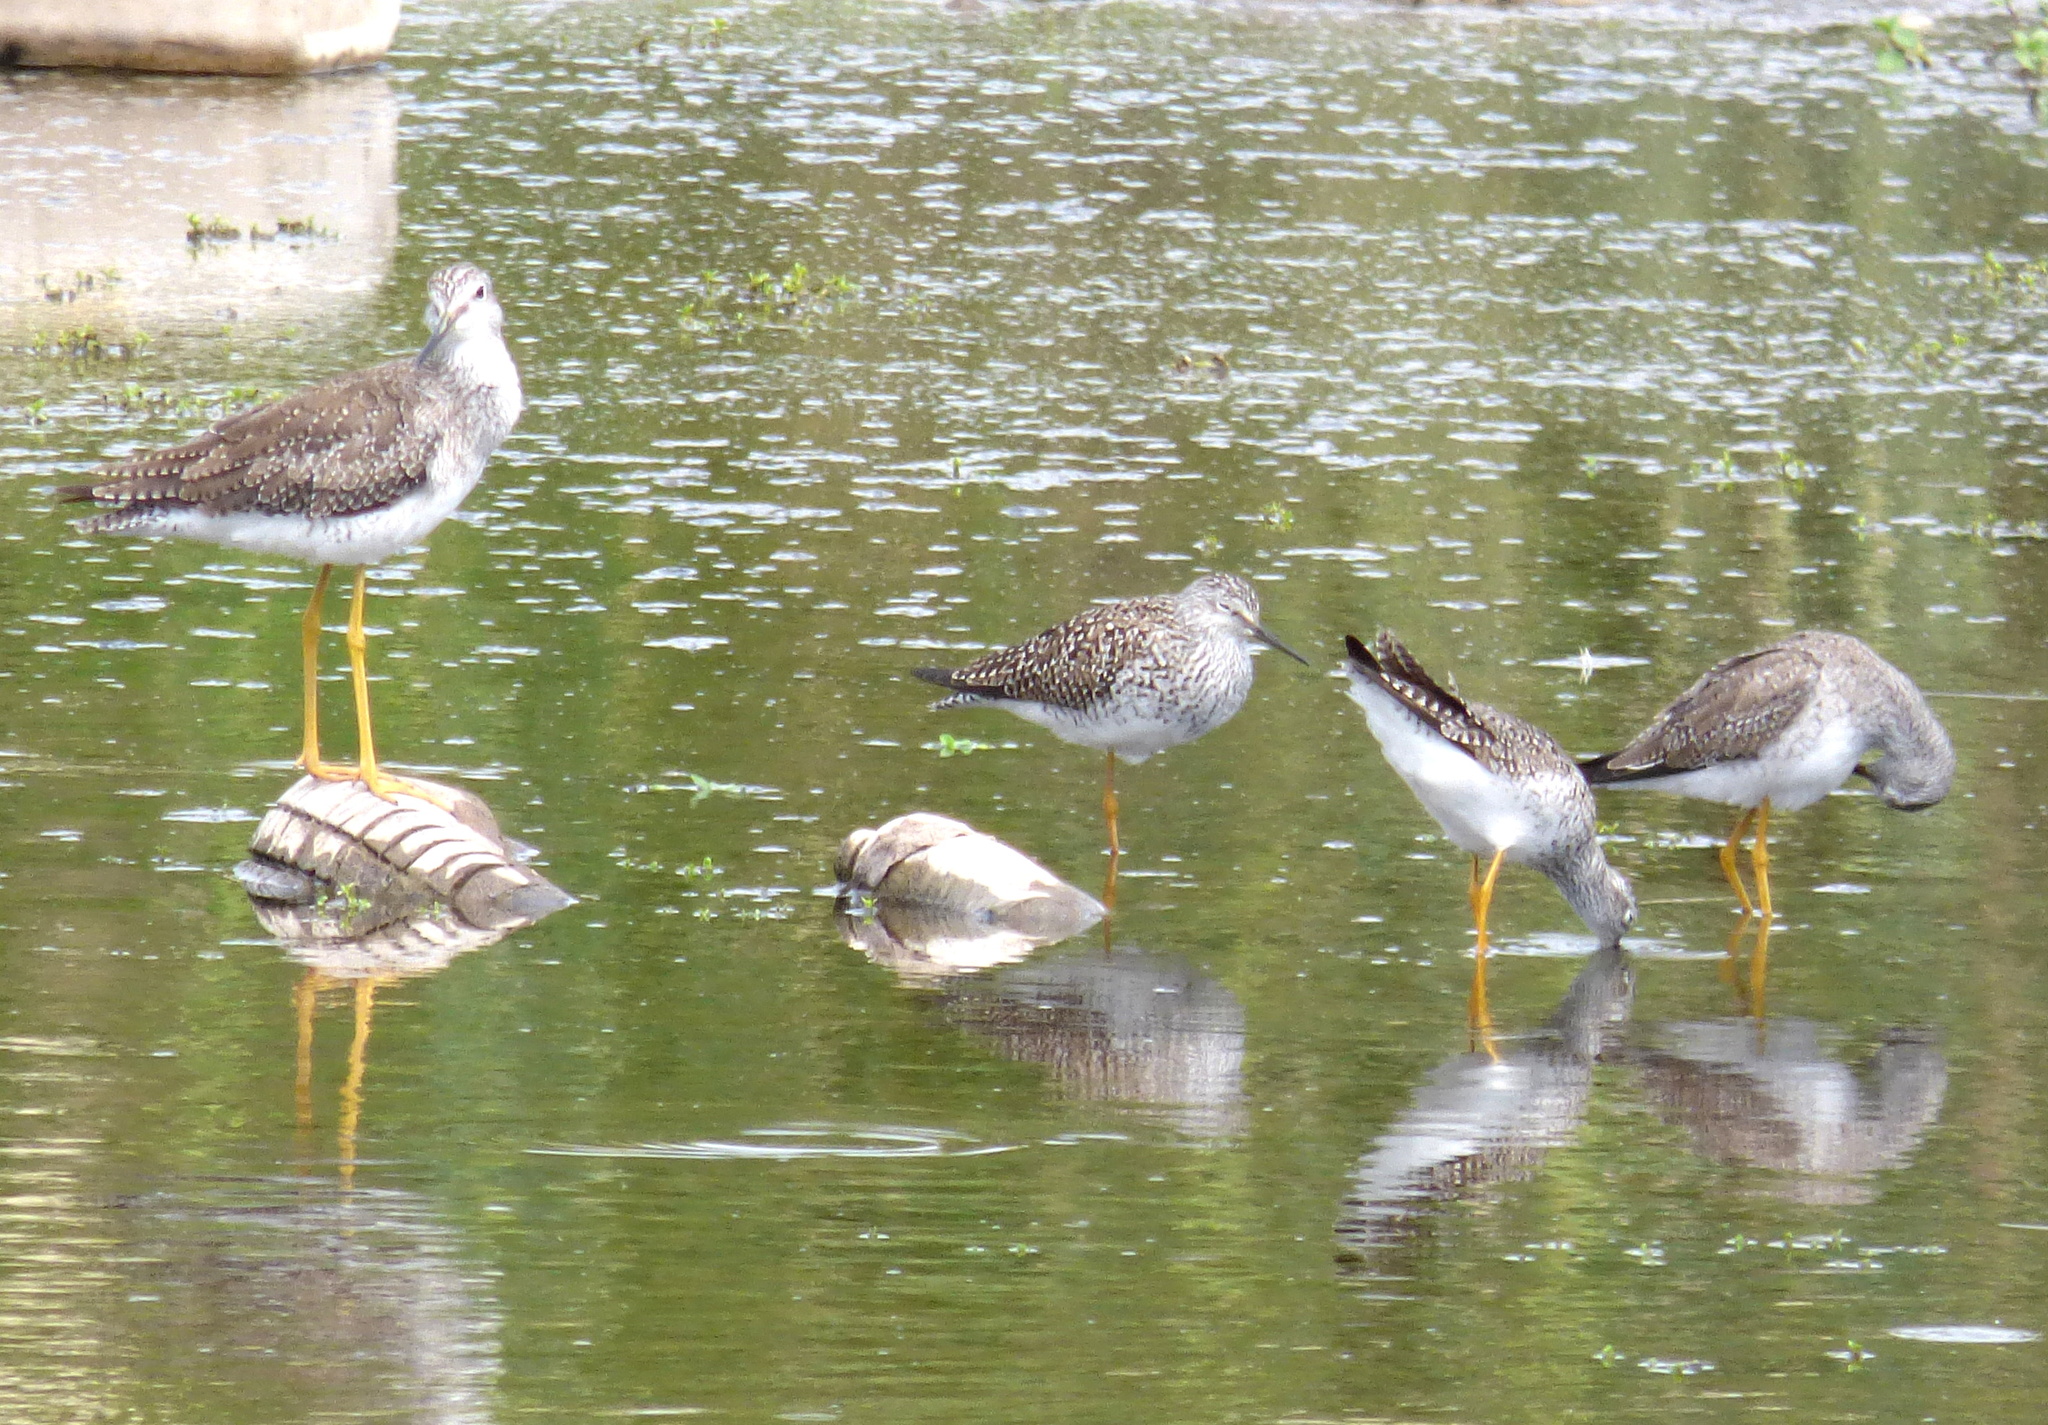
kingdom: Animalia
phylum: Chordata
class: Aves
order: Charadriiformes
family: Scolopacidae
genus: Tringa
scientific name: Tringa flavipes
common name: Lesser yellowlegs
